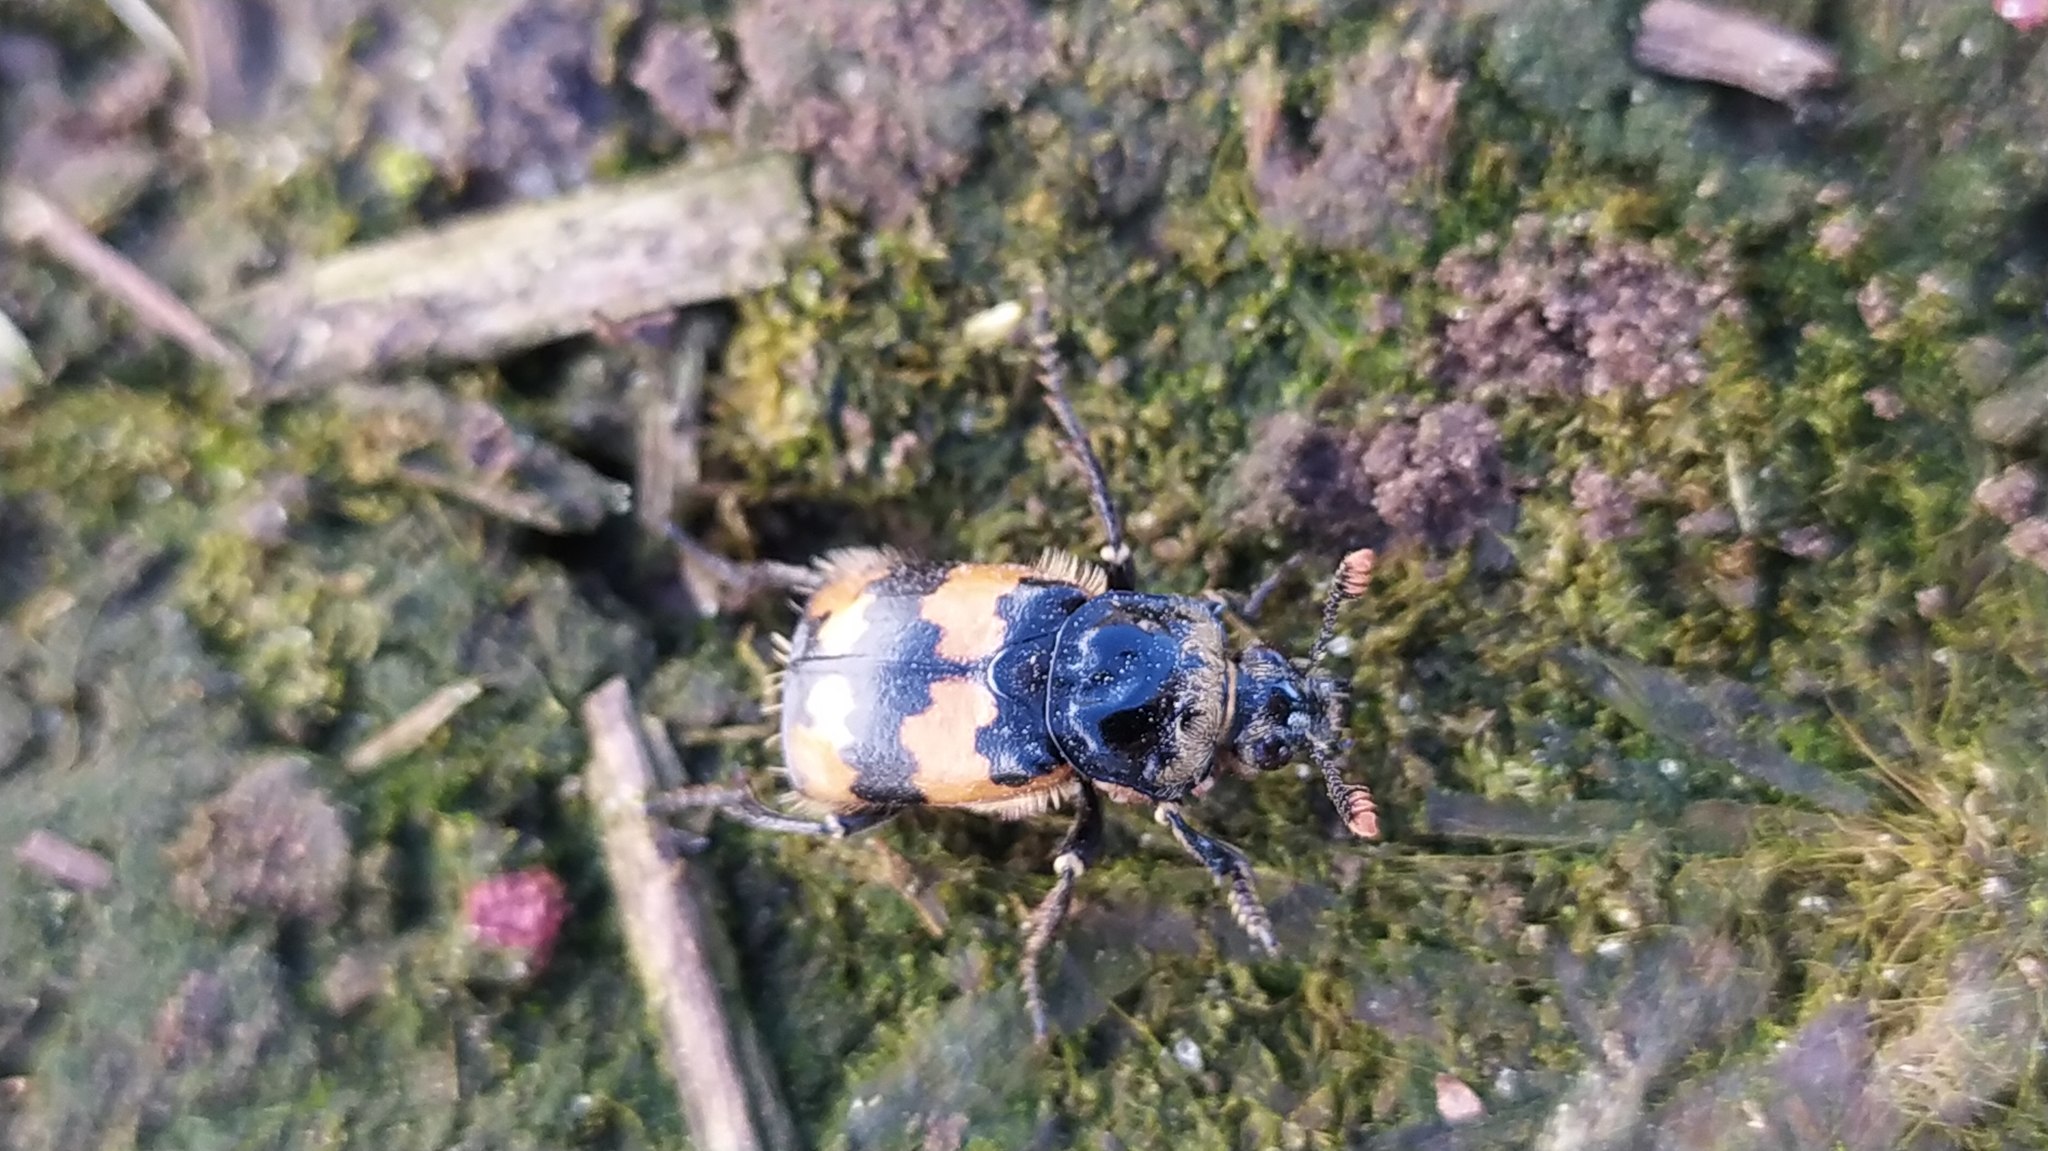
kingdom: Animalia
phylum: Arthropoda
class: Insecta
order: Coleoptera
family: Staphylinidae
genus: Nicrophorus
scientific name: Nicrophorus vespillo
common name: Common burying beetle
